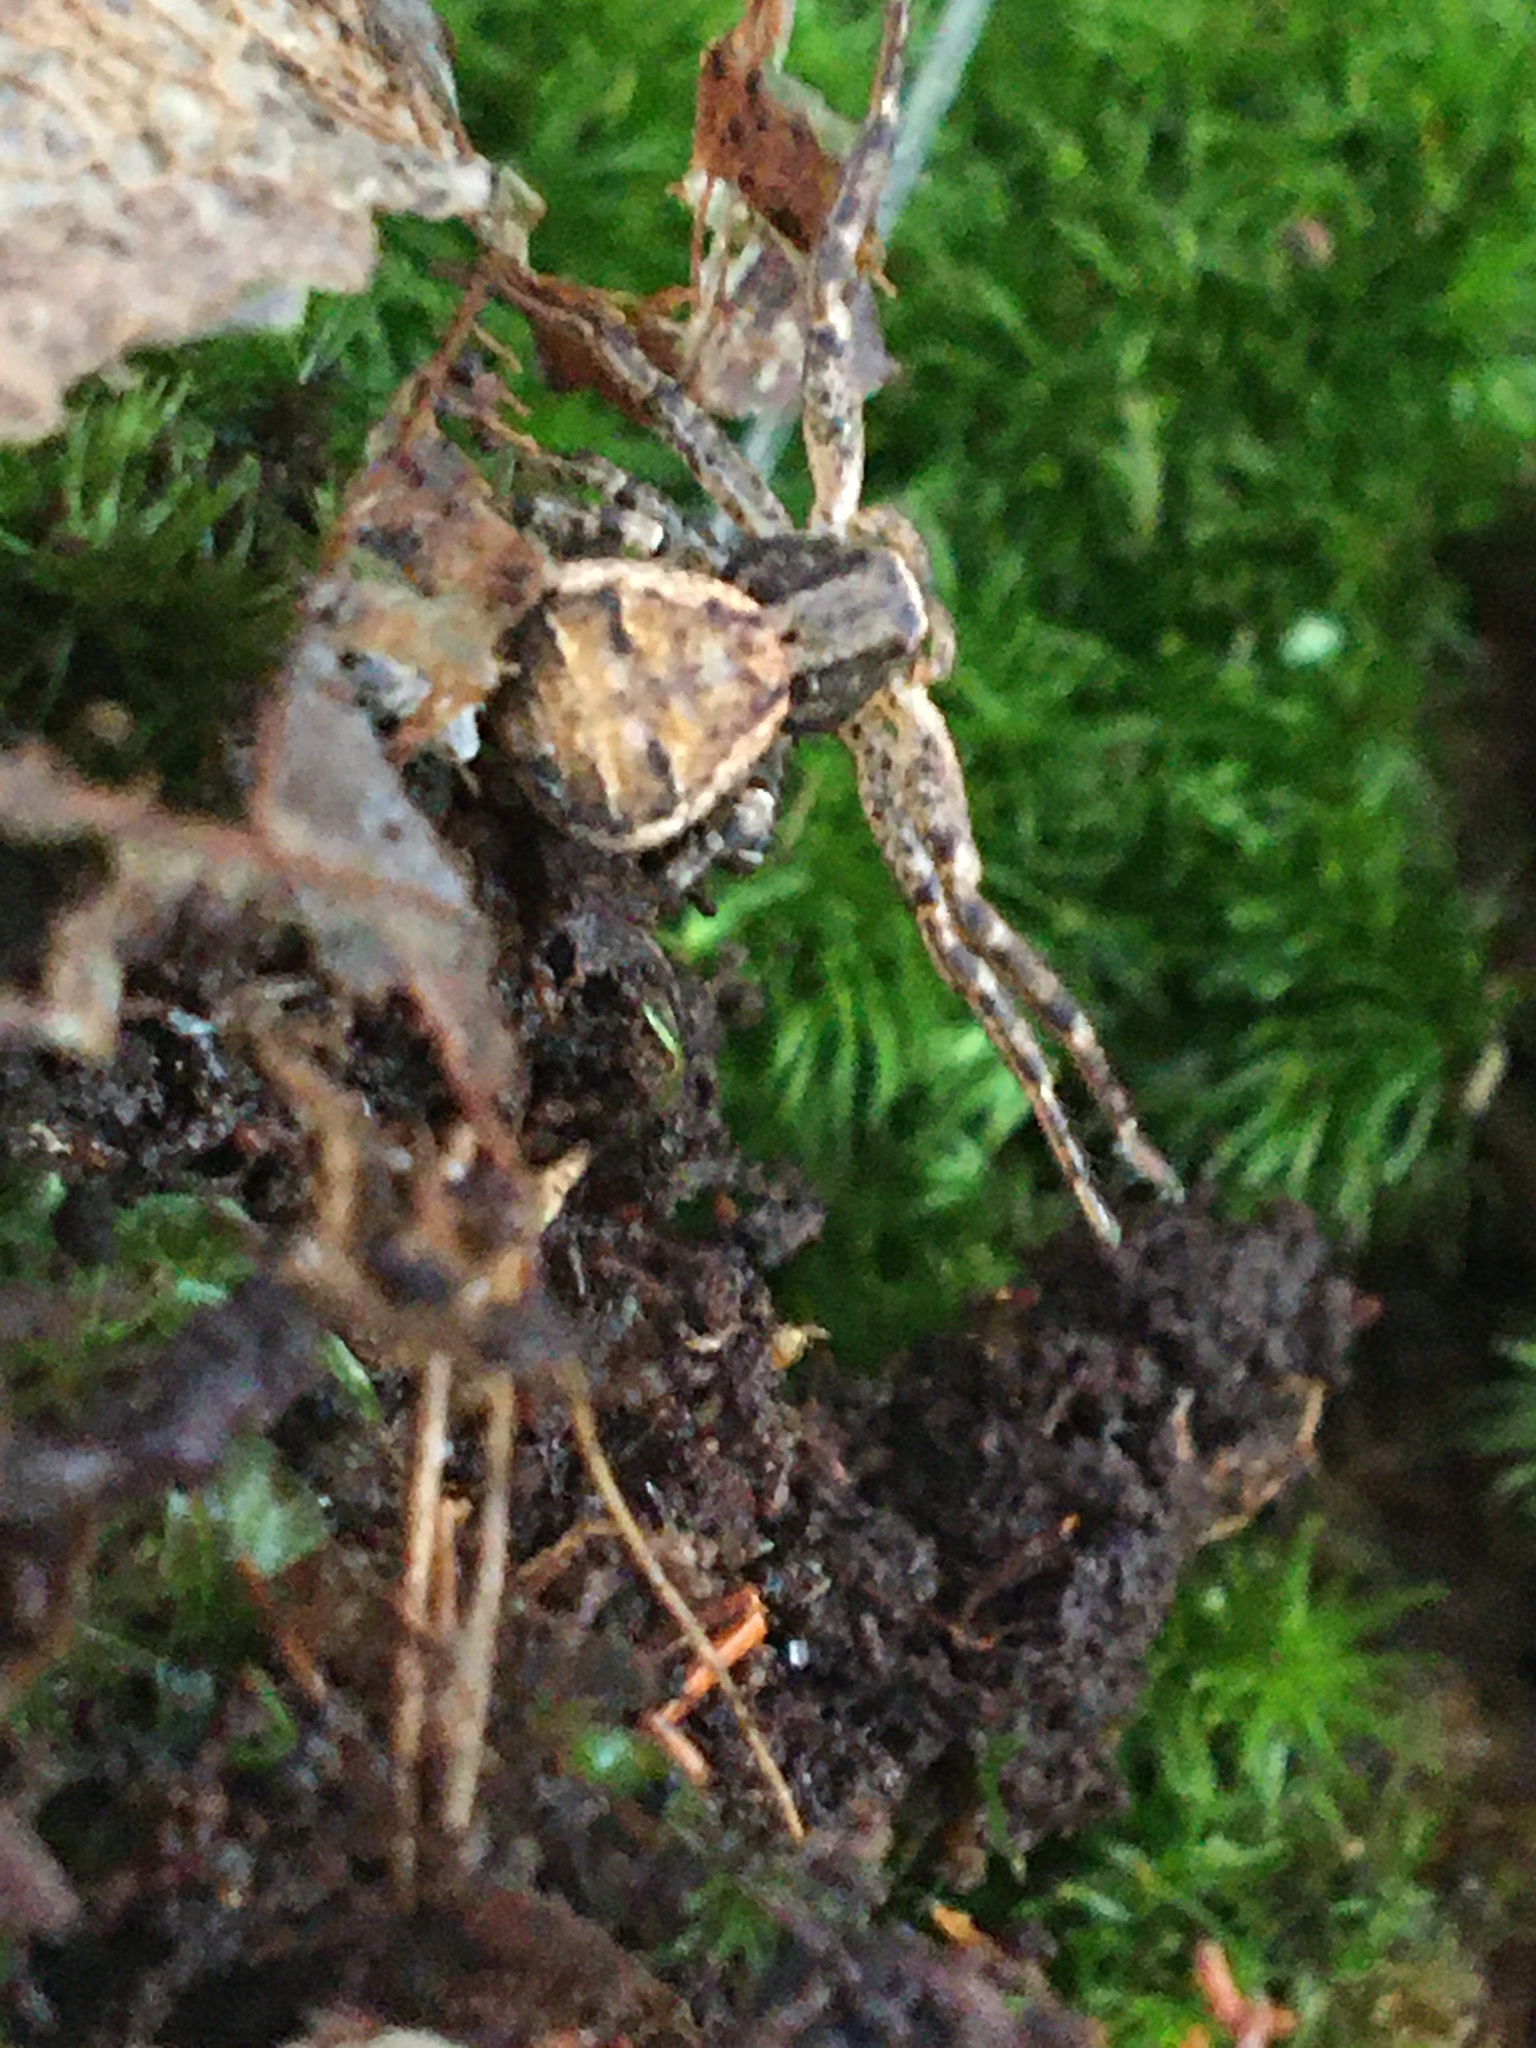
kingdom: Animalia
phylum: Arthropoda
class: Arachnida
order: Araneae
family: Thomisidae
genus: Xysticus
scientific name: Xysticus
